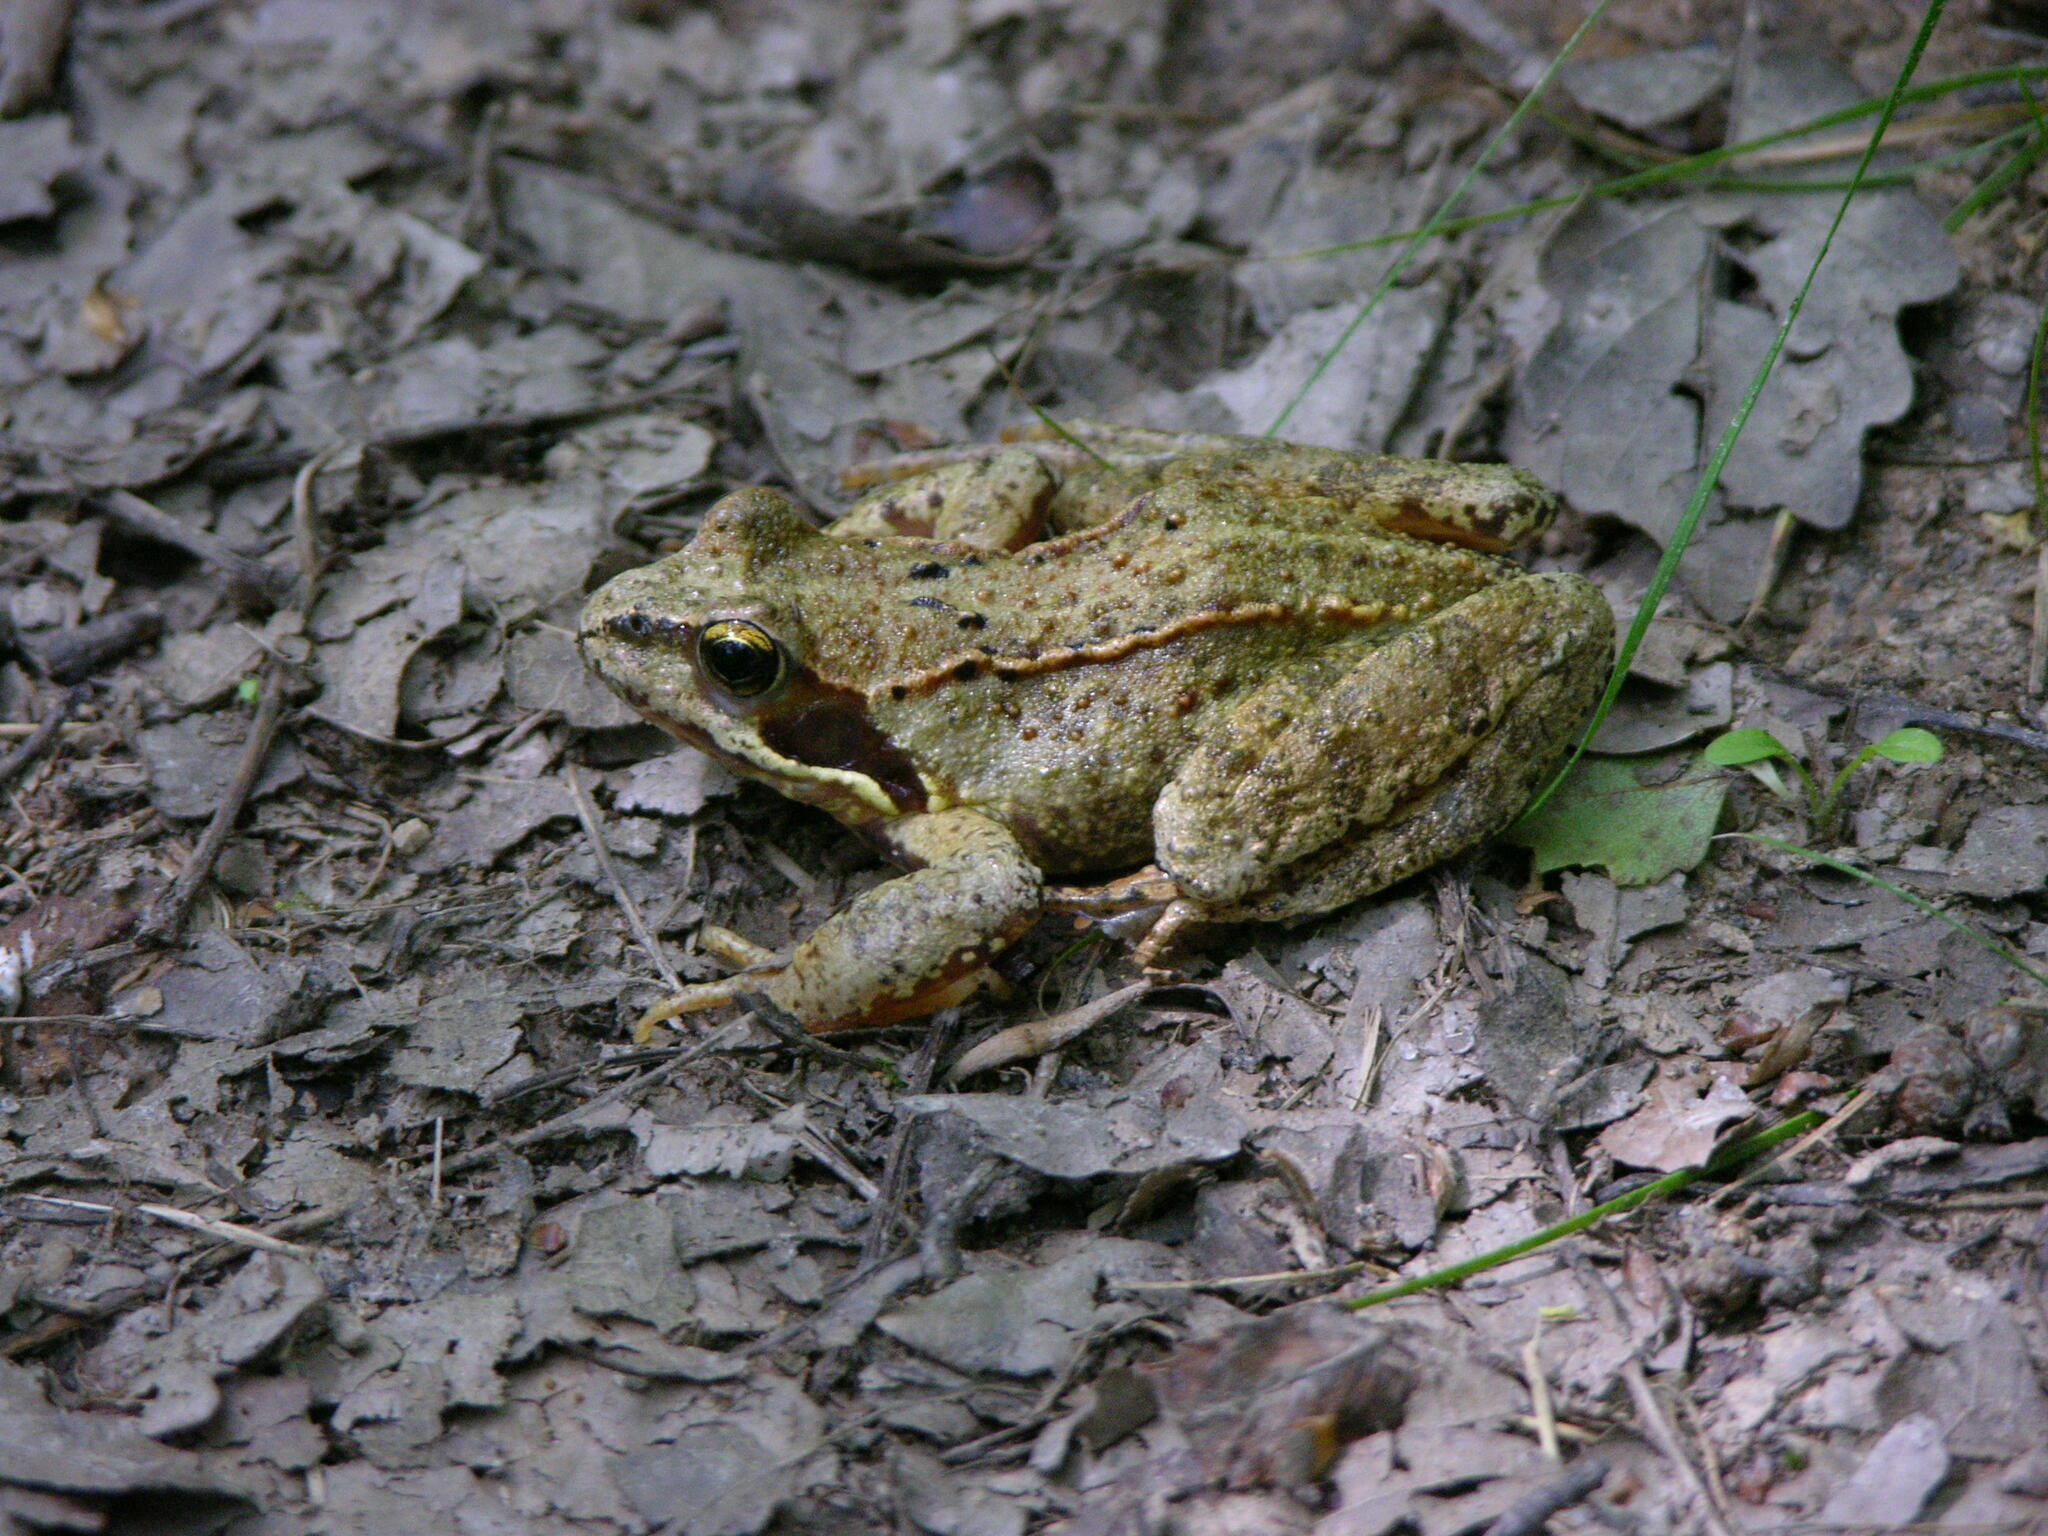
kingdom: Animalia
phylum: Chordata
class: Amphibia
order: Anura
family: Ranidae
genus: Rana
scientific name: Rana temporaria
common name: Common frog
